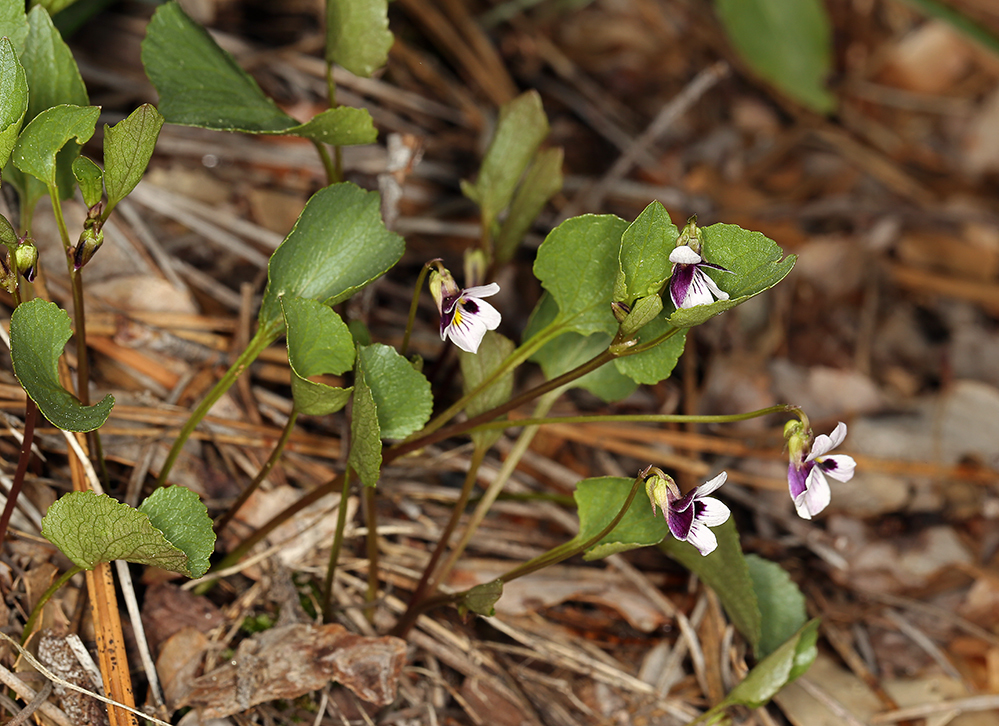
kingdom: Plantae
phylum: Tracheophyta
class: Magnoliopsida
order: Malpighiales
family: Violaceae
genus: Viola
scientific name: Viola cuneata
